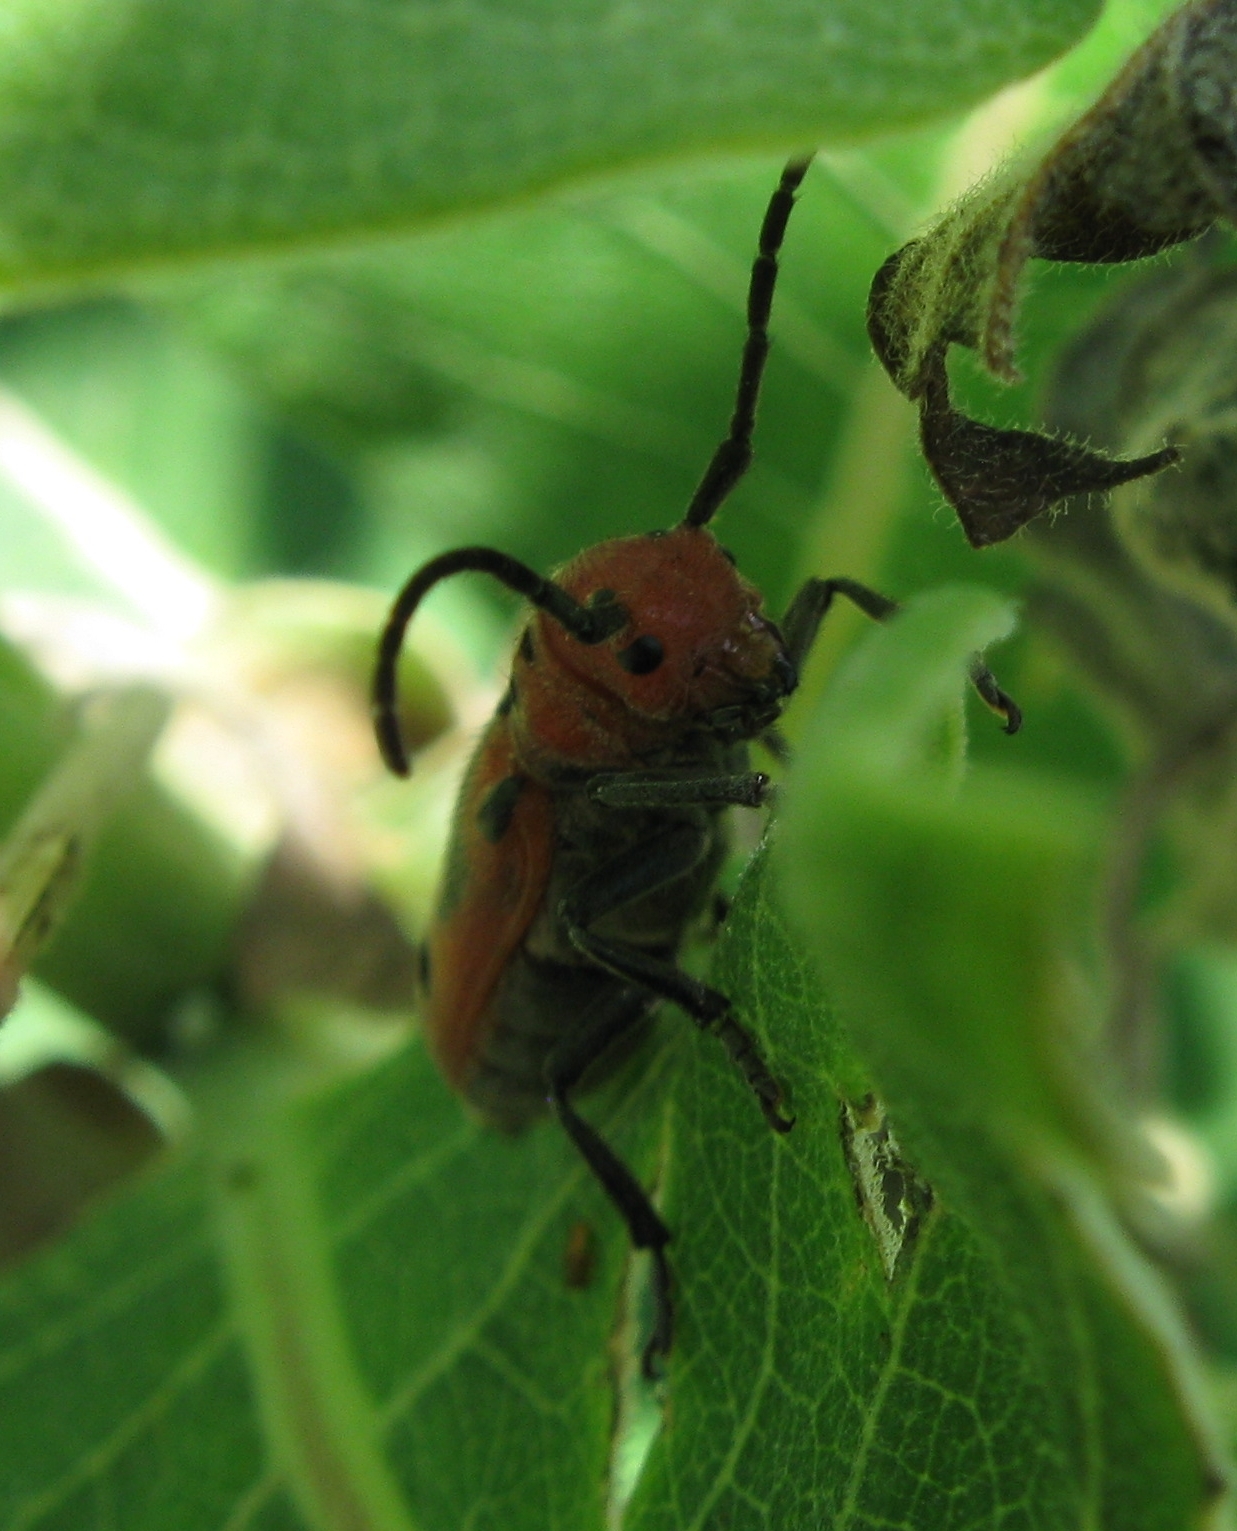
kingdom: Animalia
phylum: Arthropoda
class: Insecta
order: Coleoptera
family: Cerambycidae
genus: Tetraopes
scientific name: Tetraopes tetrophthalmus
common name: Red milkweed beetle
